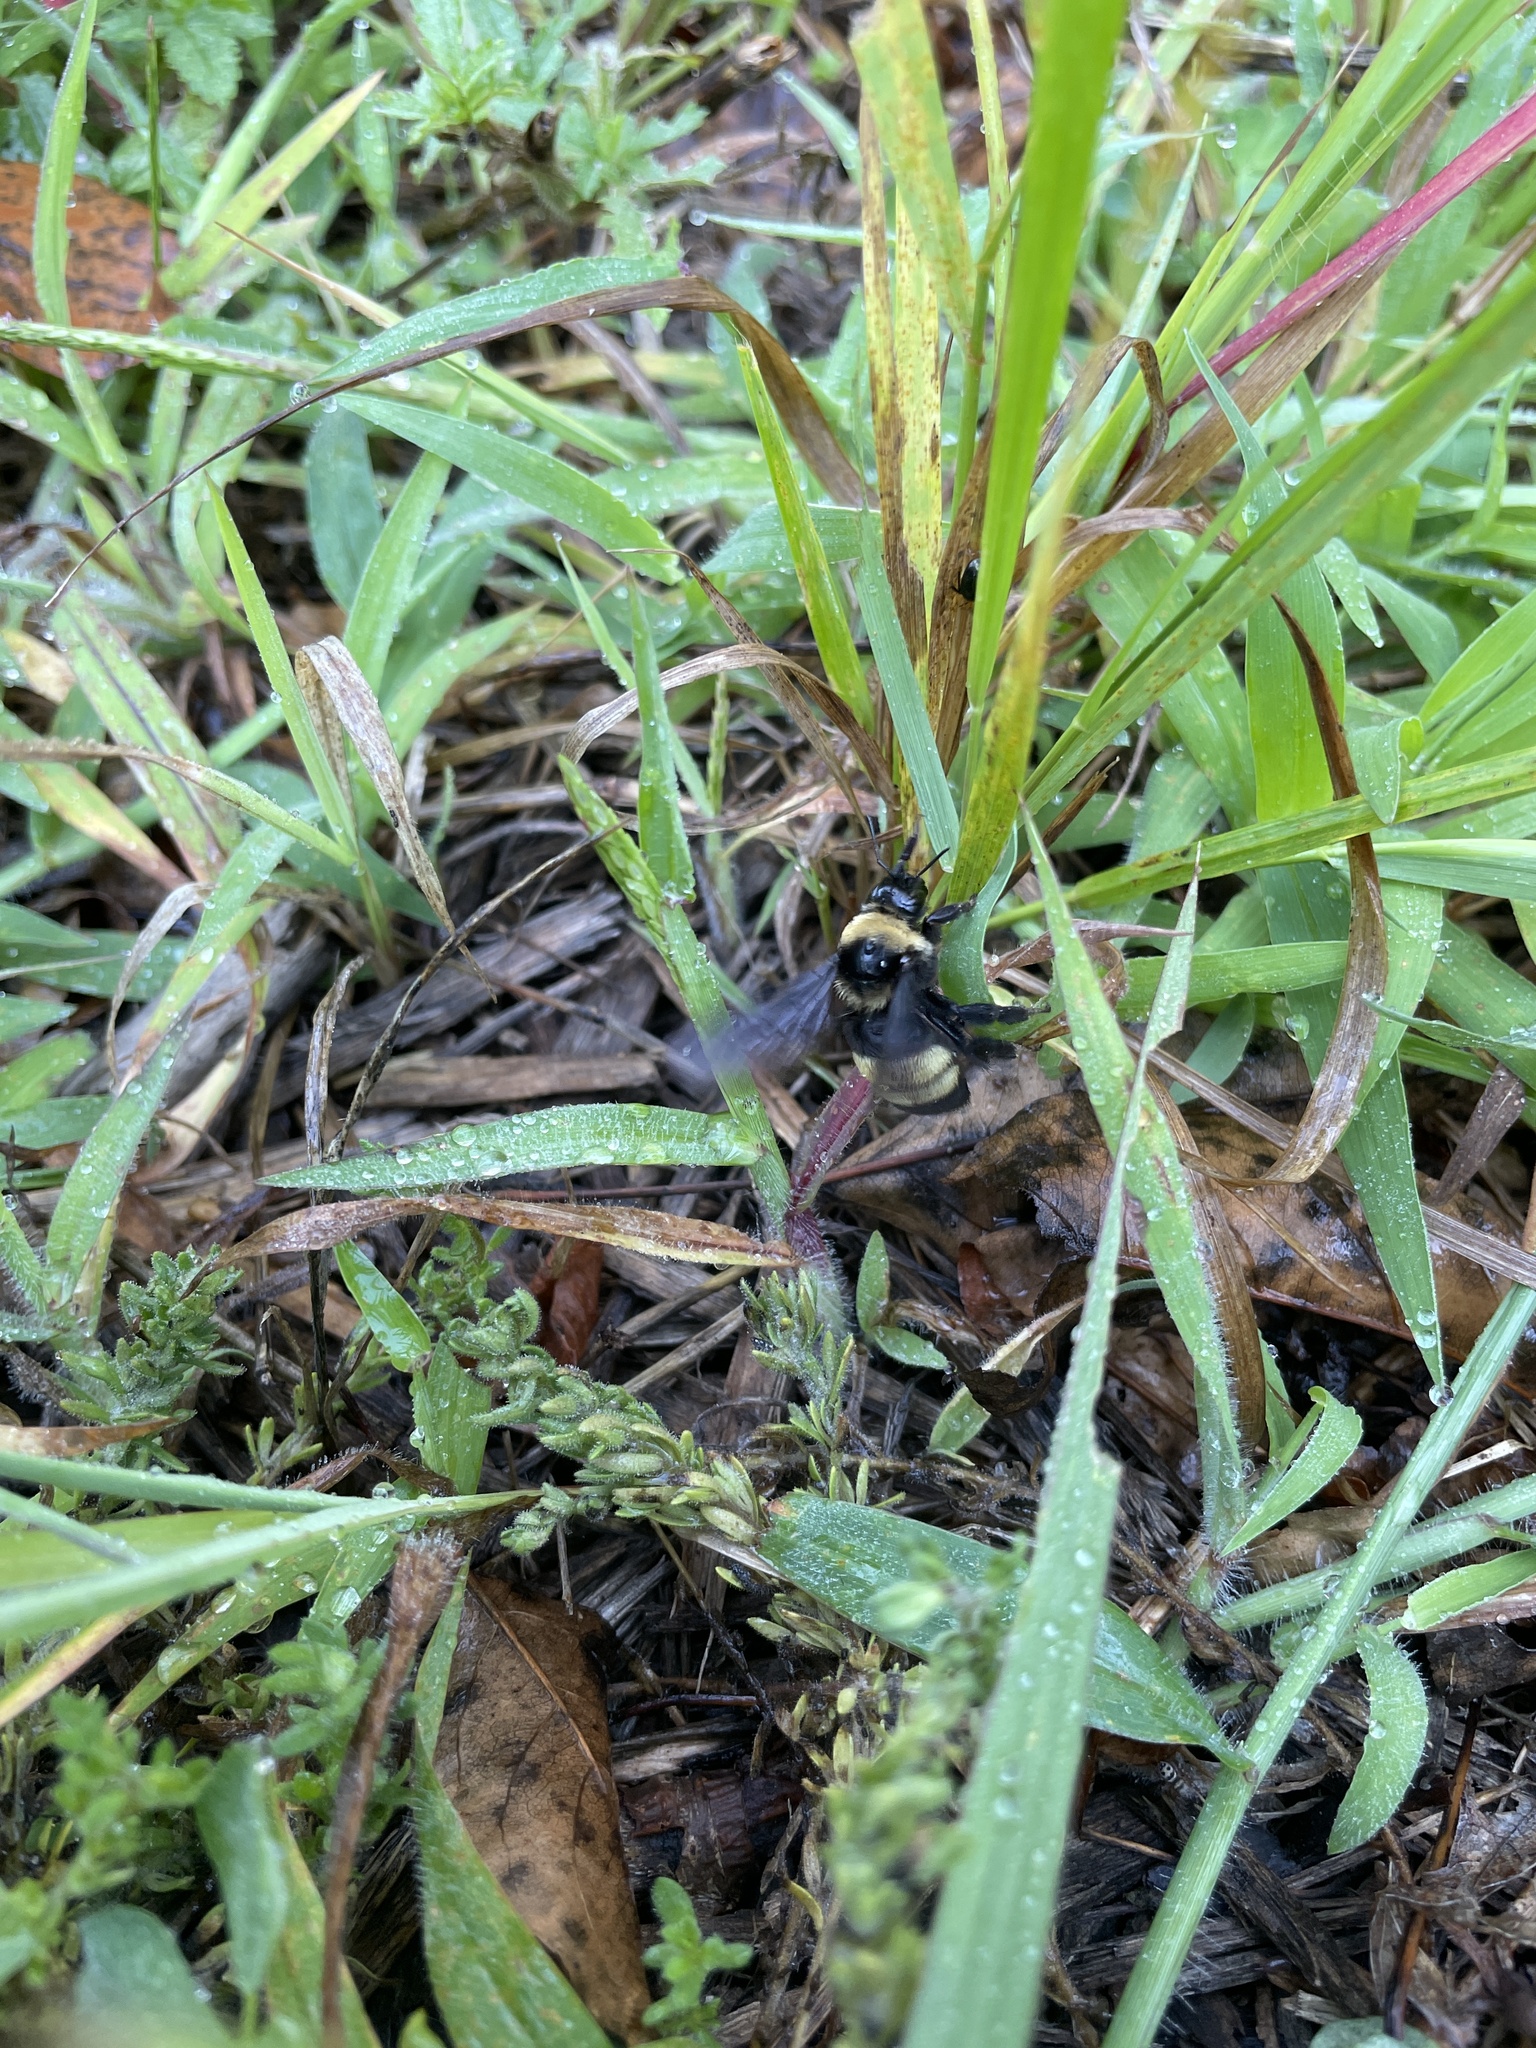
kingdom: Animalia
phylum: Arthropoda
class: Insecta
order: Hymenoptera
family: Apidae
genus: Bombus
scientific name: Bombus auricomus
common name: Black and gold bumble bee
